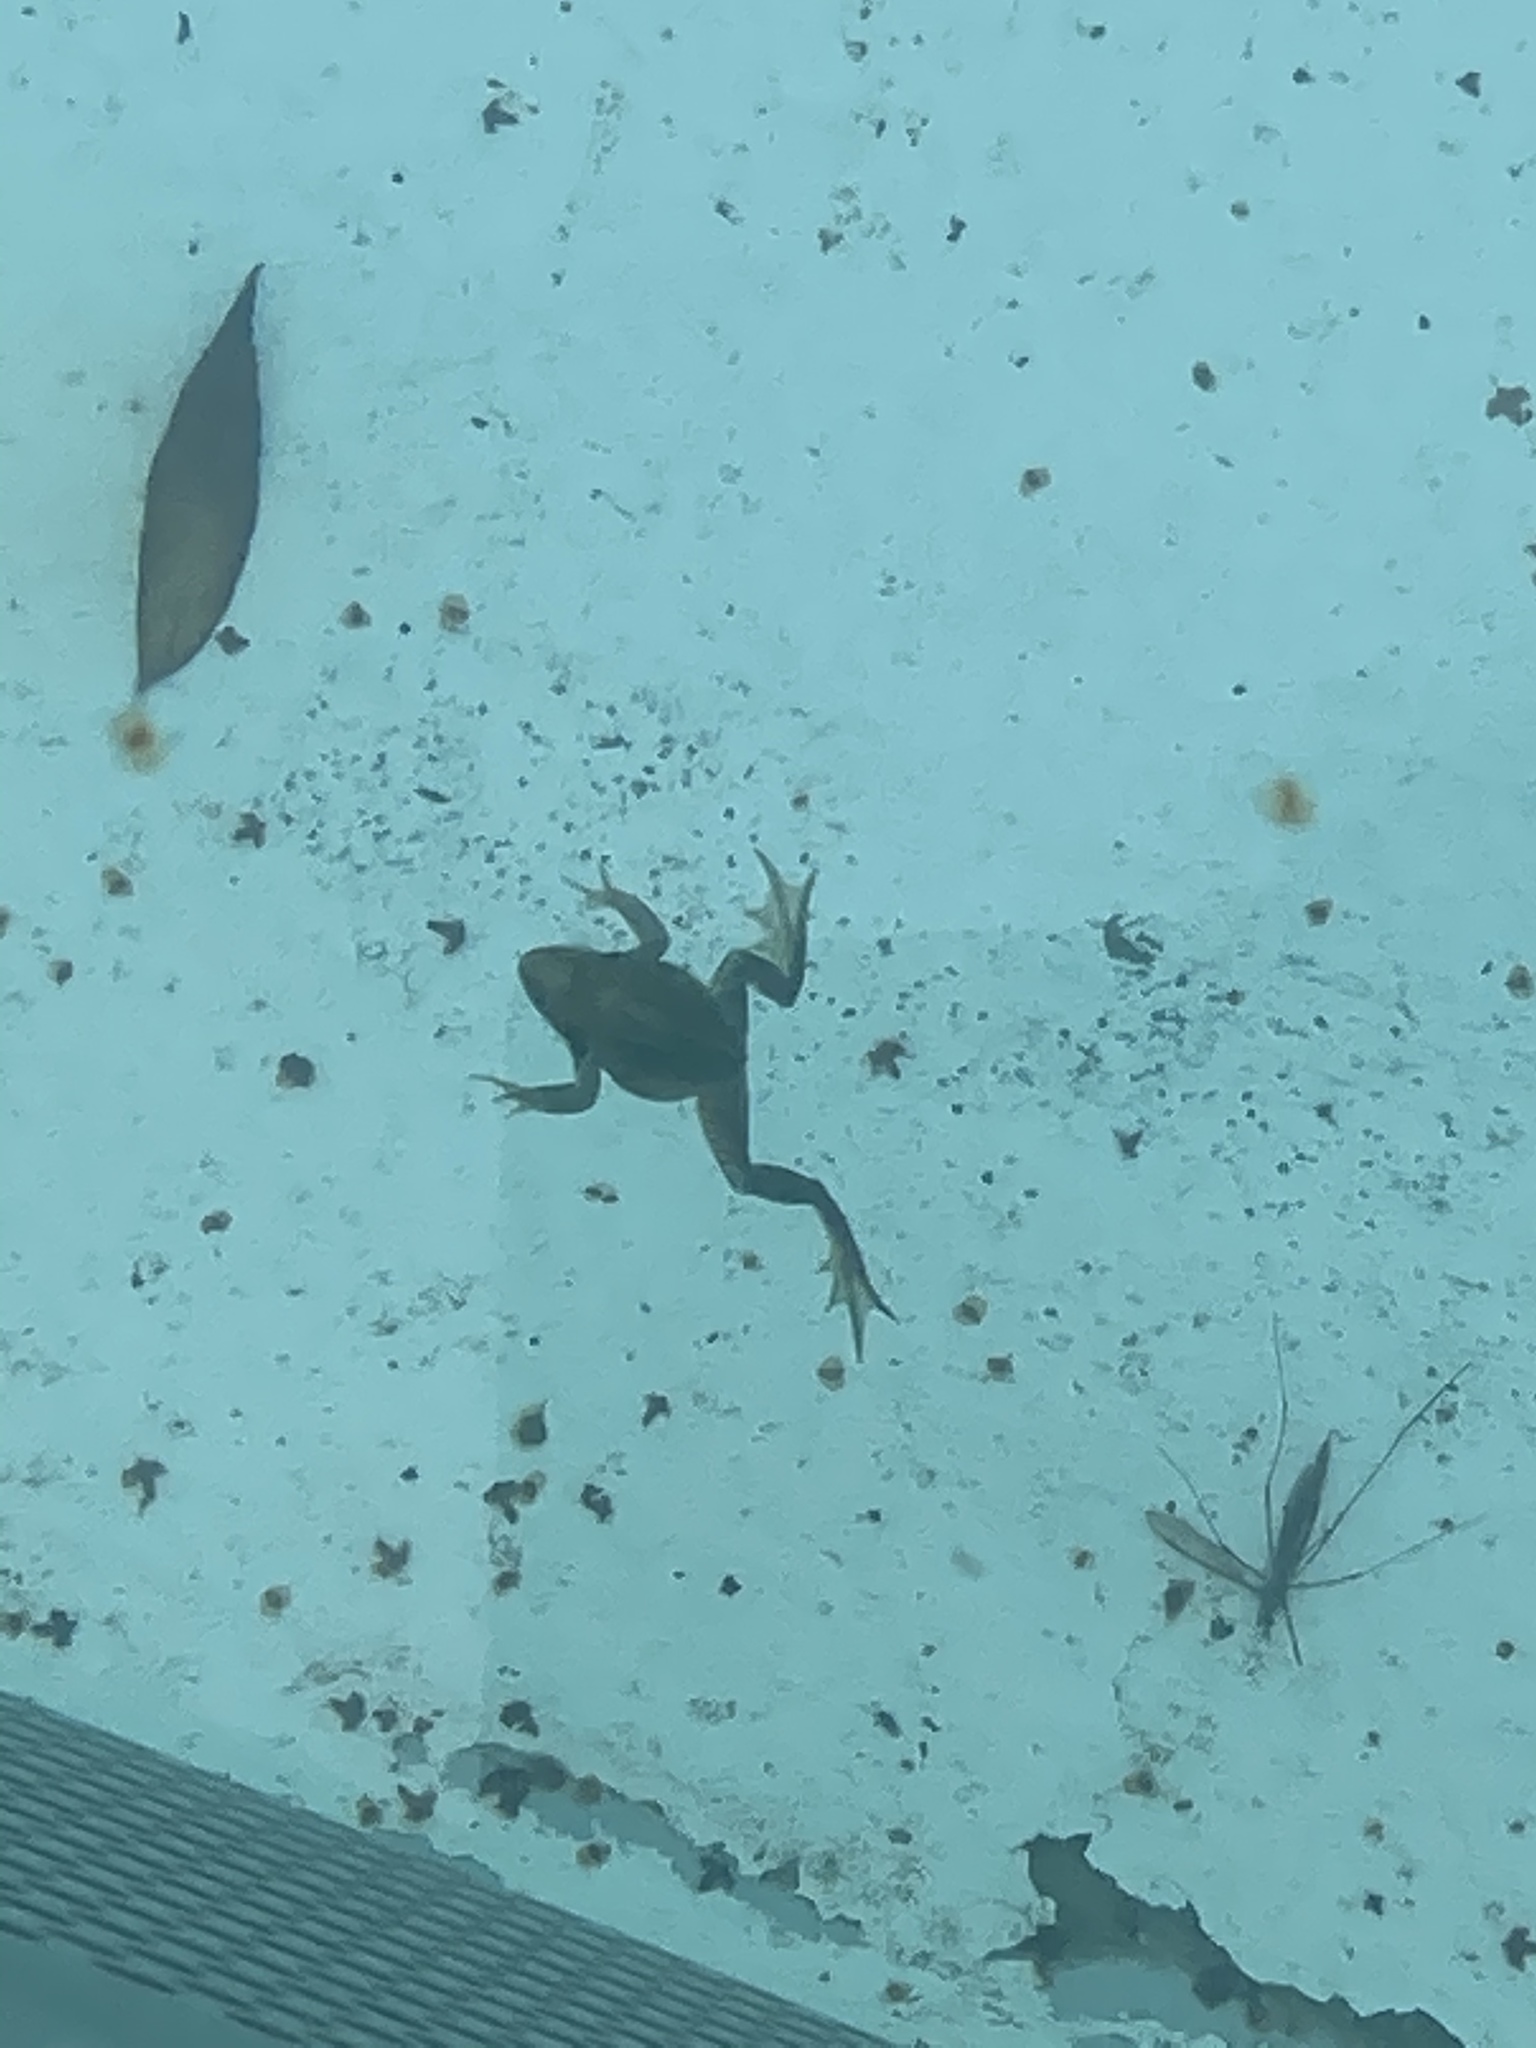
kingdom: Animalia
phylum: Chordata
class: Amphibia
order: Anura
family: Ranidae
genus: Rana
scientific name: Rana temporaria
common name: Common frog
